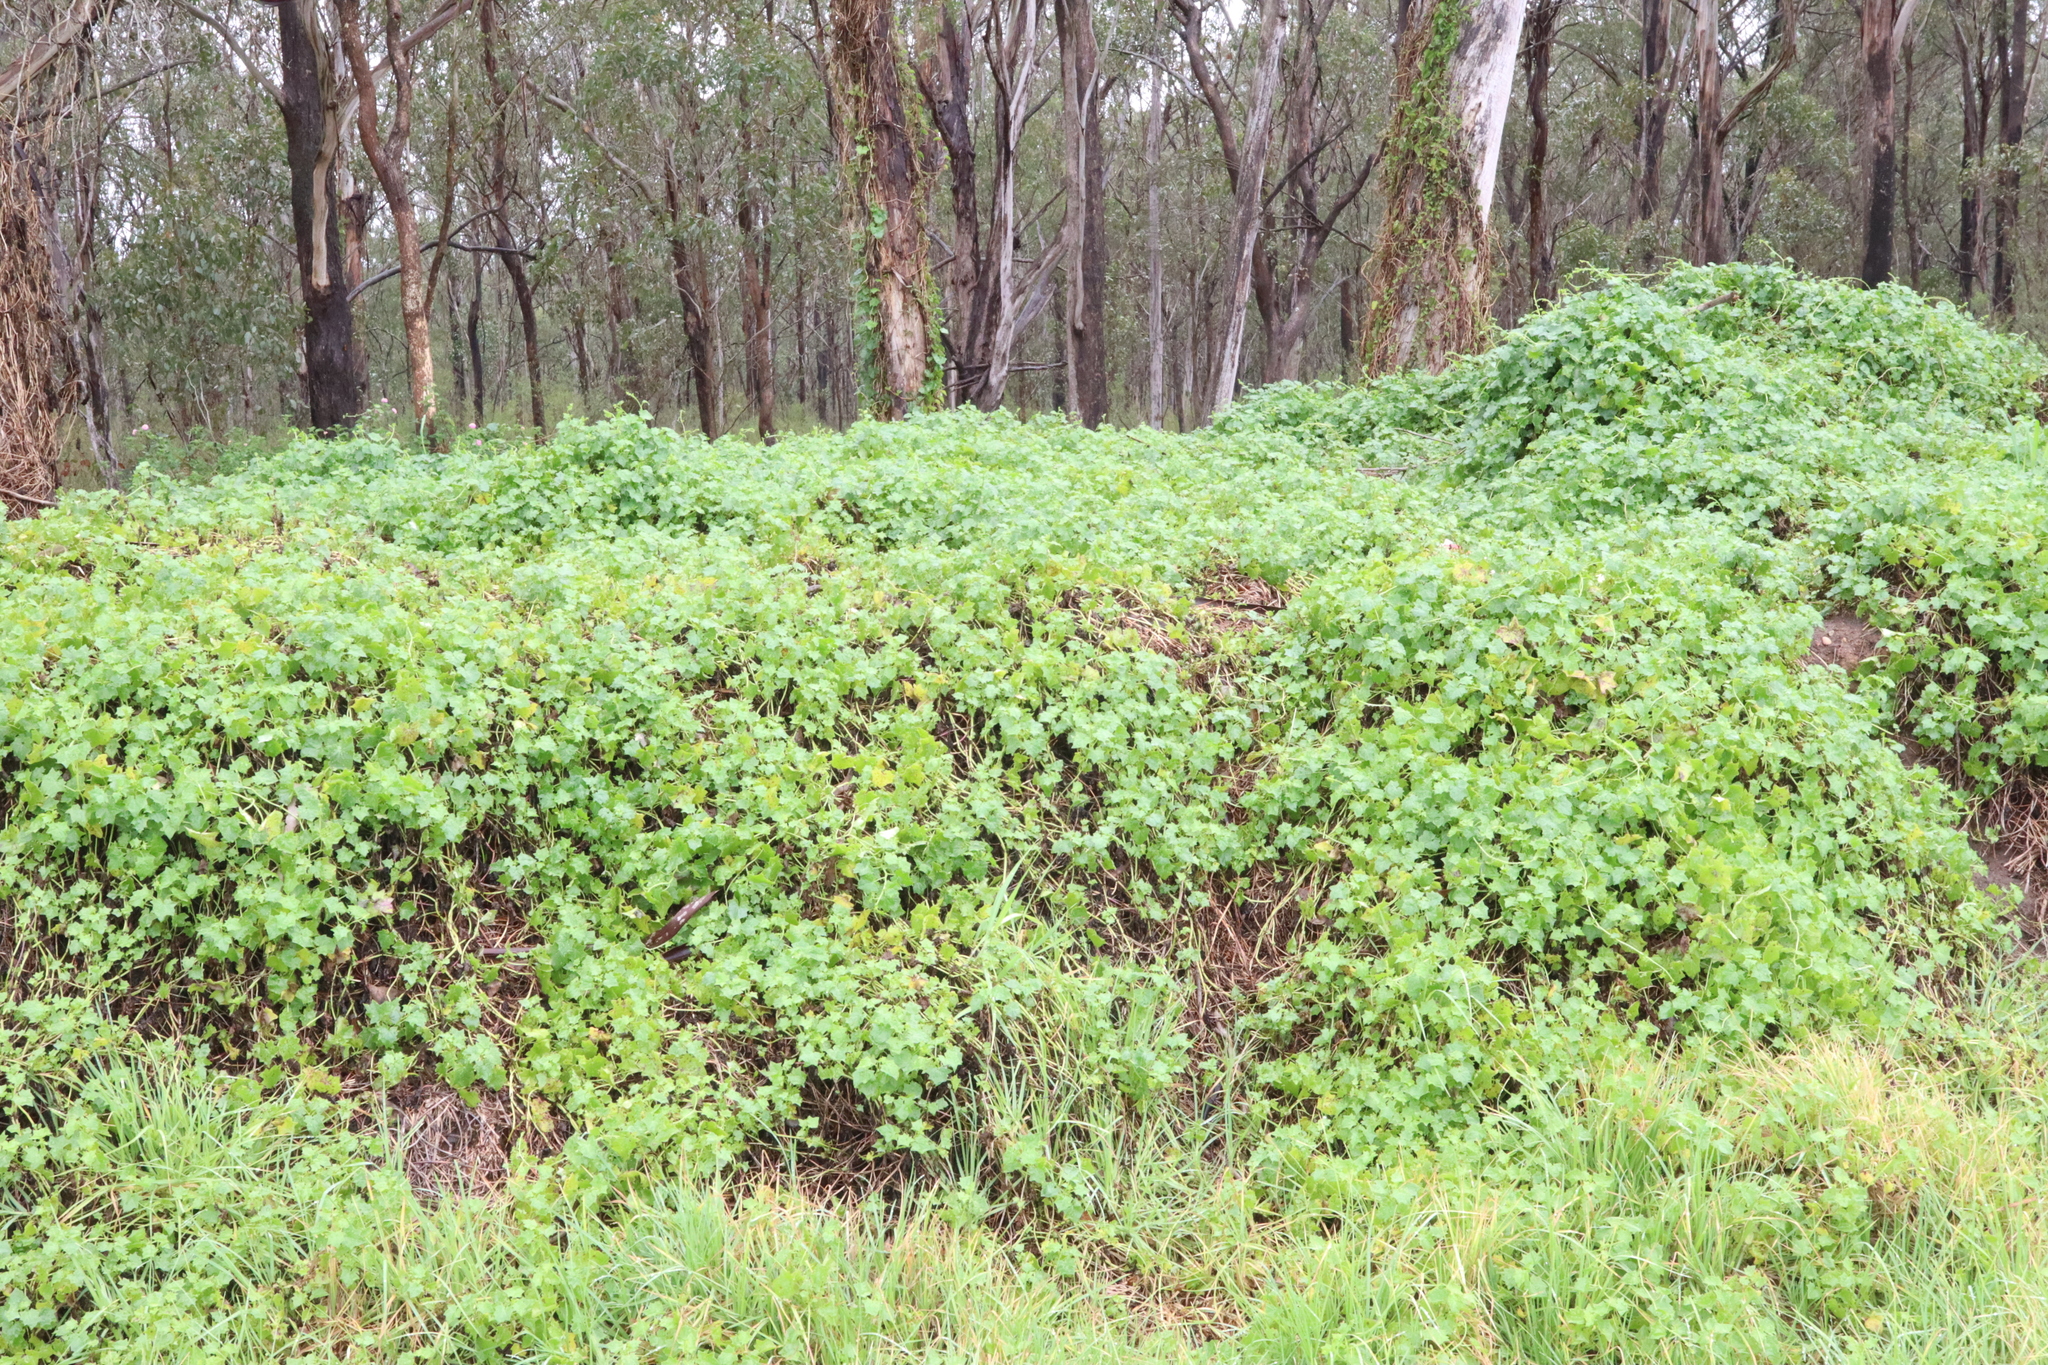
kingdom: Plantae
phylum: Tracheophyta
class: Magnoliopsida
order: Asterales
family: Asteraceae
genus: Delairea
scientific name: Delairea odorata
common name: Cape-ivy
